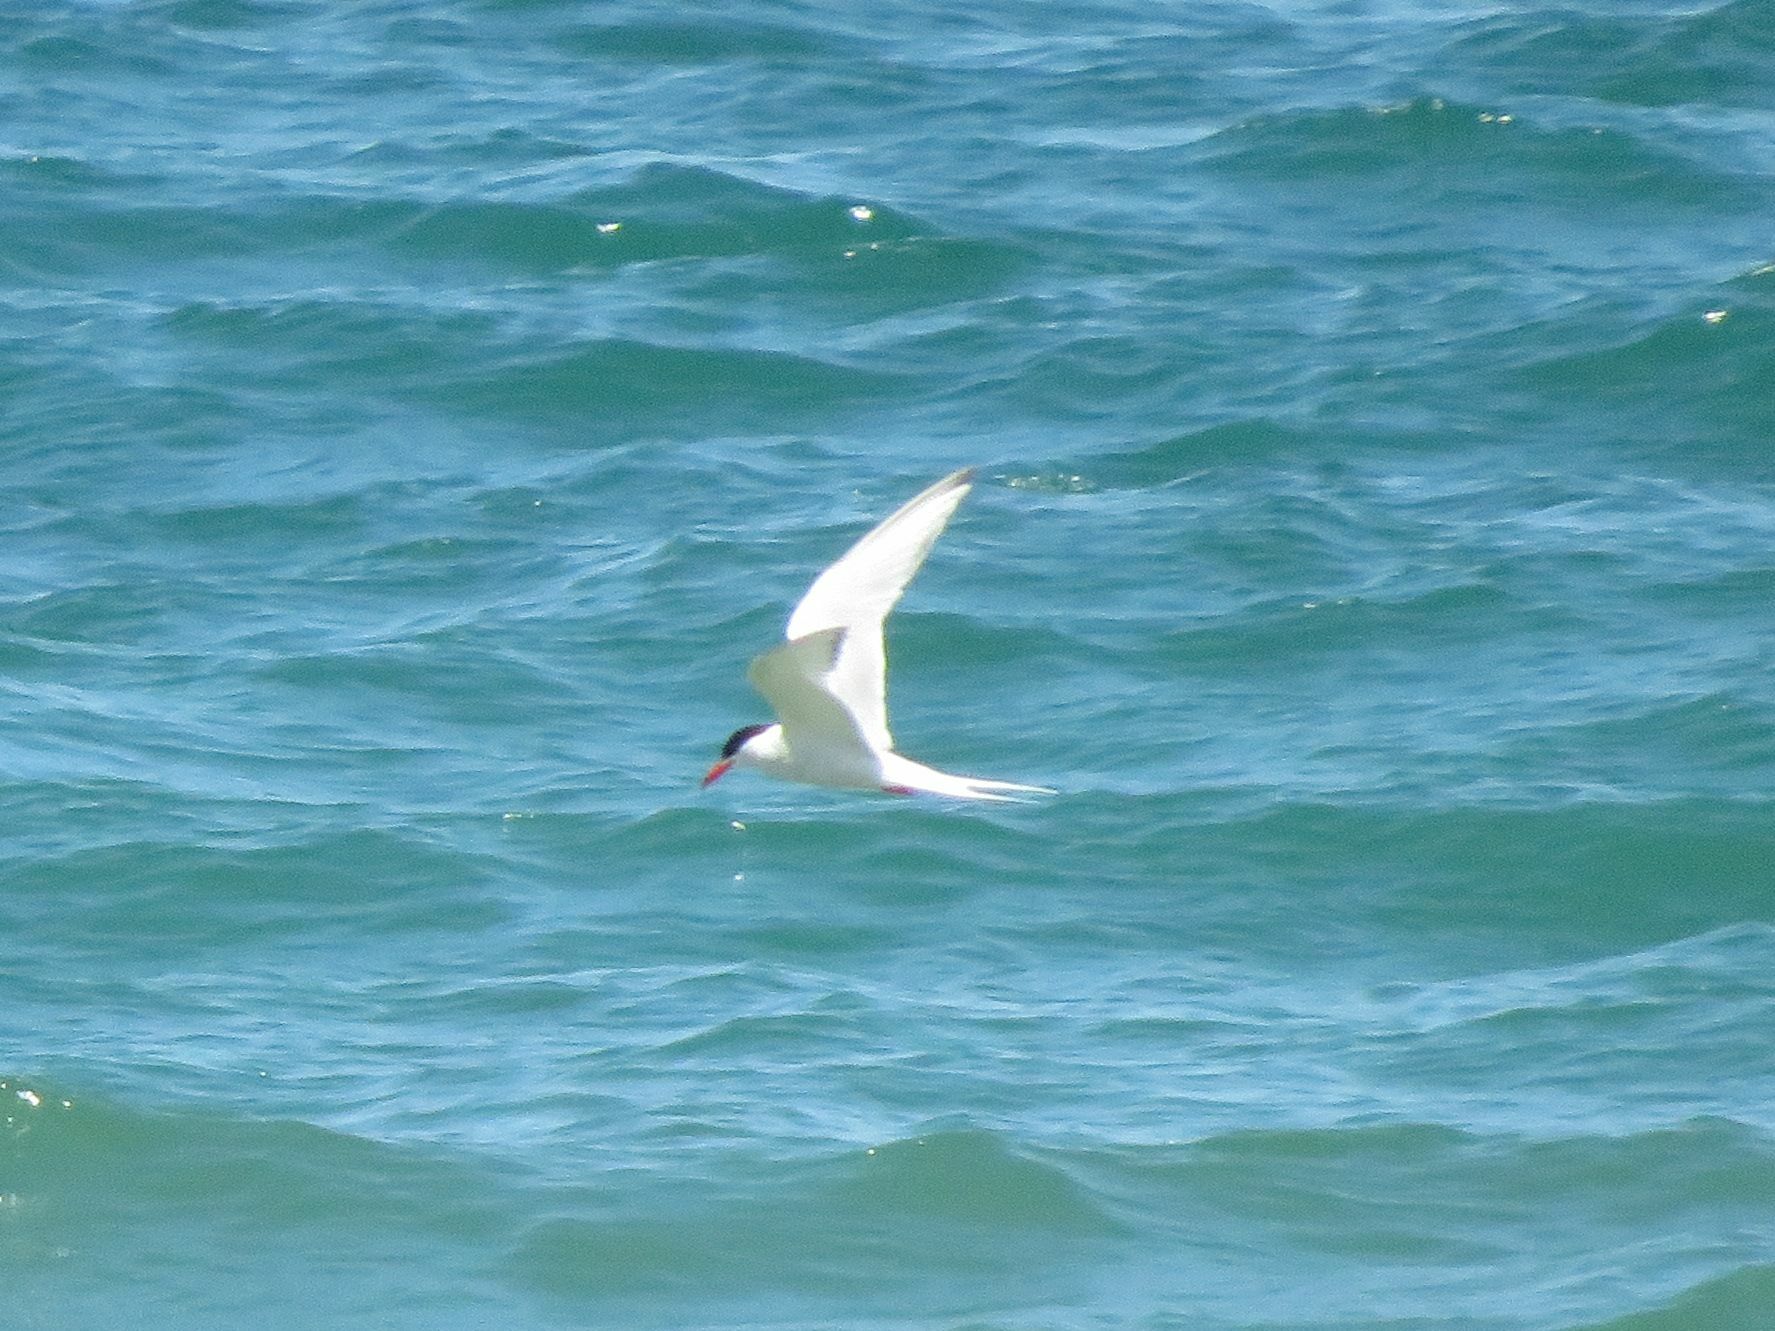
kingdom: Animalia
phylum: Chordata
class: Aves
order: Charadriiformes
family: Laridae
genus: Sterna
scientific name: Sterna hirundinacea
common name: South american tern
